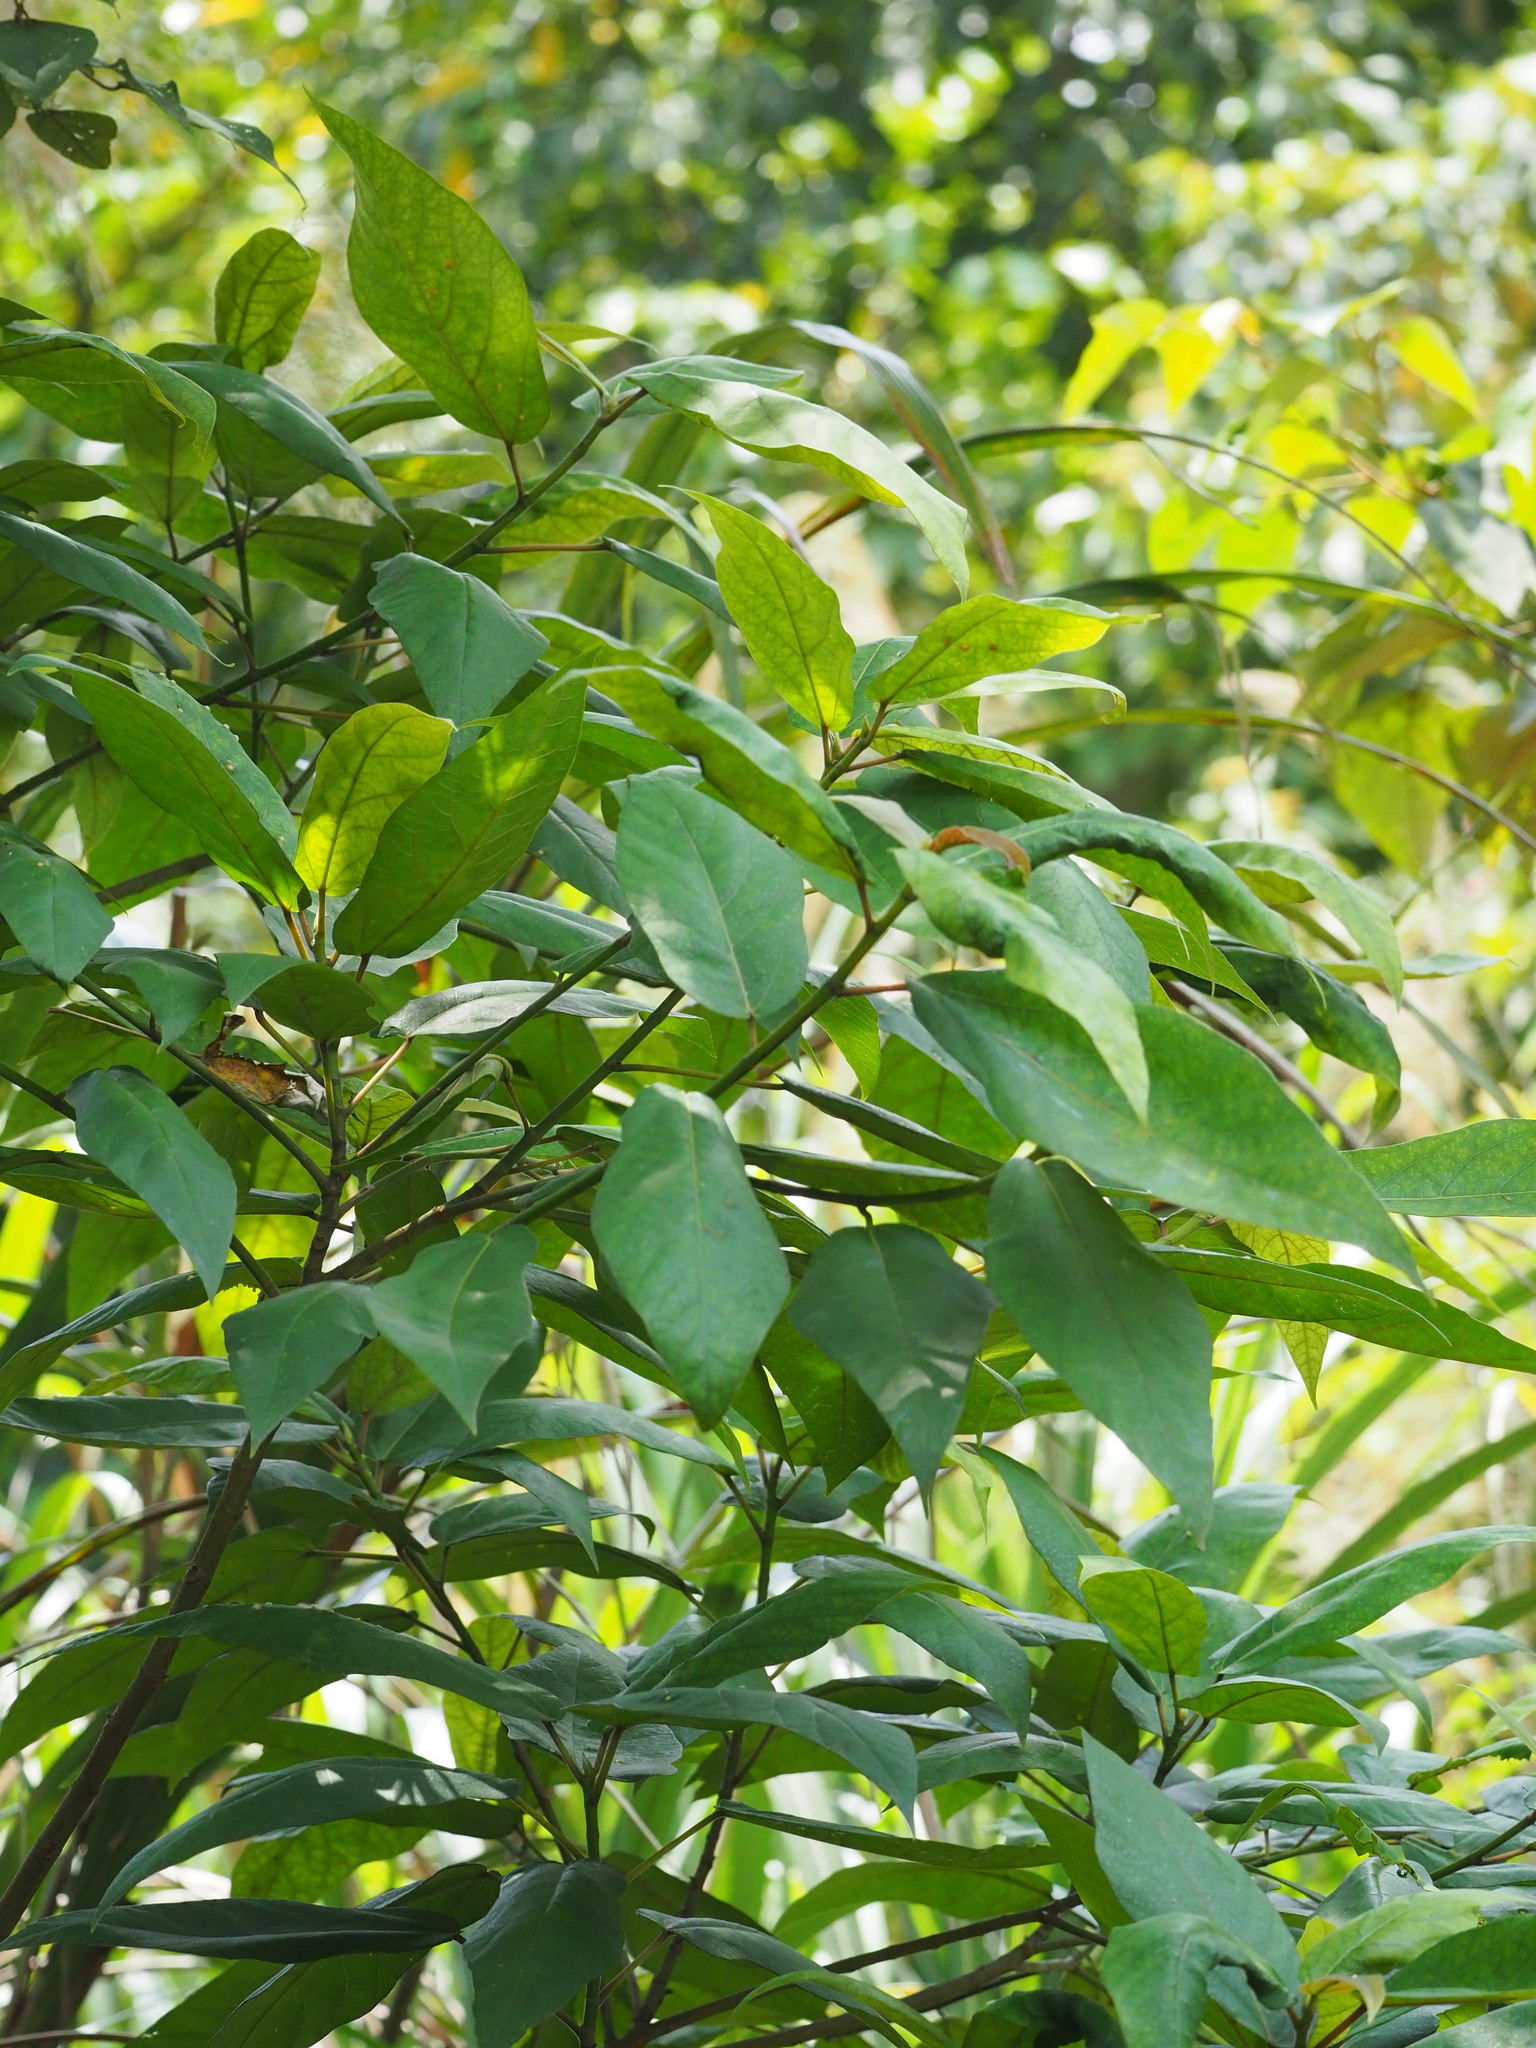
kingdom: Plantae
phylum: Tracheophyta
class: Magnoliopsida
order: Rosales
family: Moraceae
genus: Ficus
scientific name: Ficus erecta
